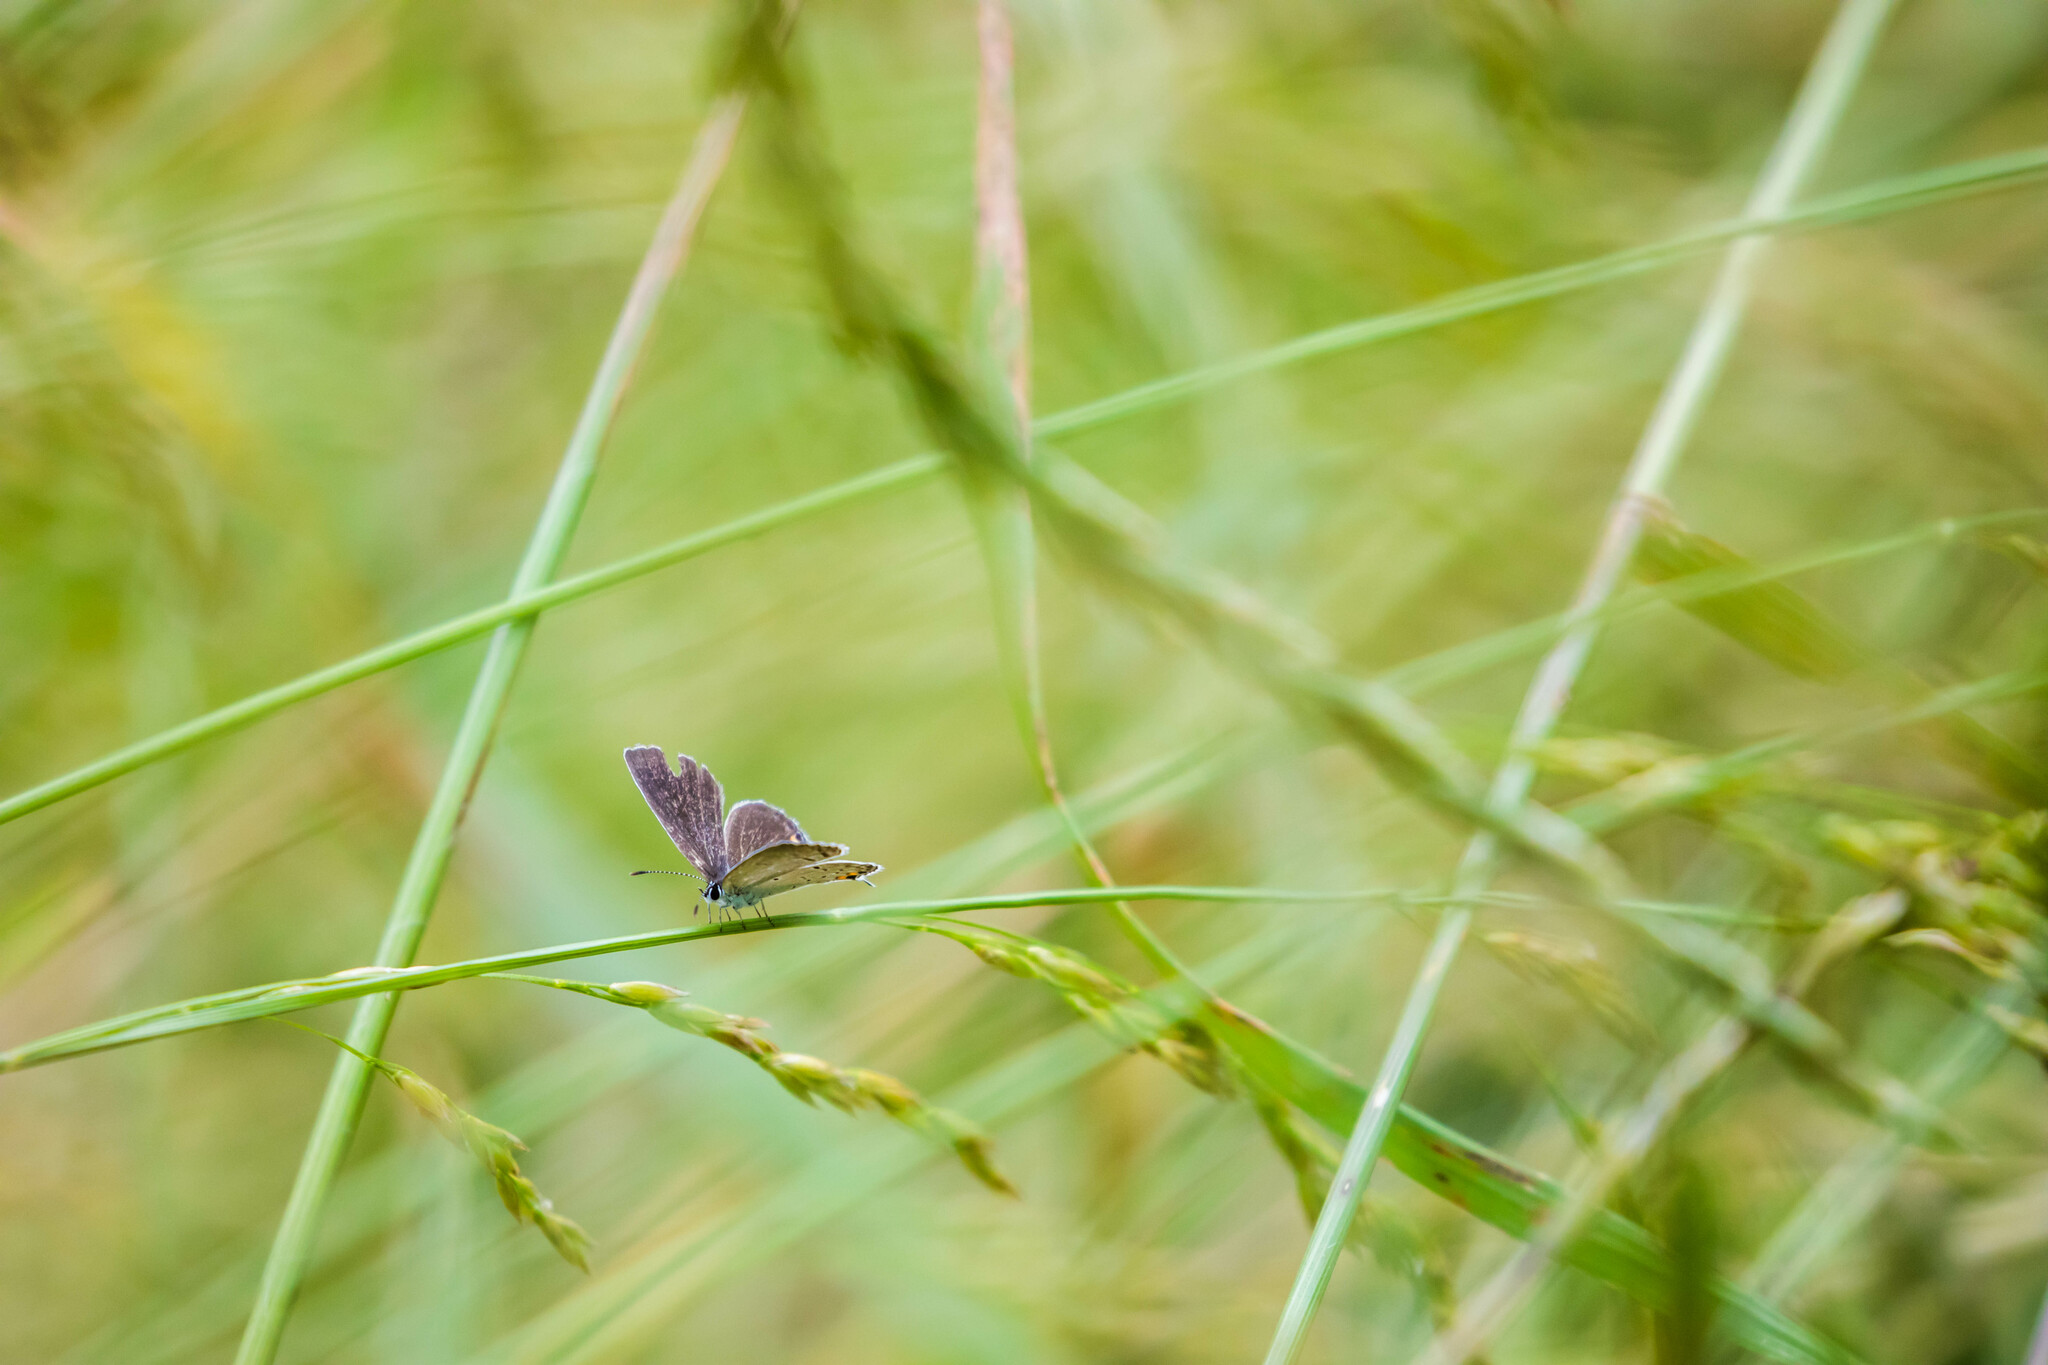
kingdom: Animalia
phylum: Arthropoda
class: Insecta
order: Lepidoptera
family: Lycaenidae
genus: Elkalyce
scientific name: Elkalyce comyntas
